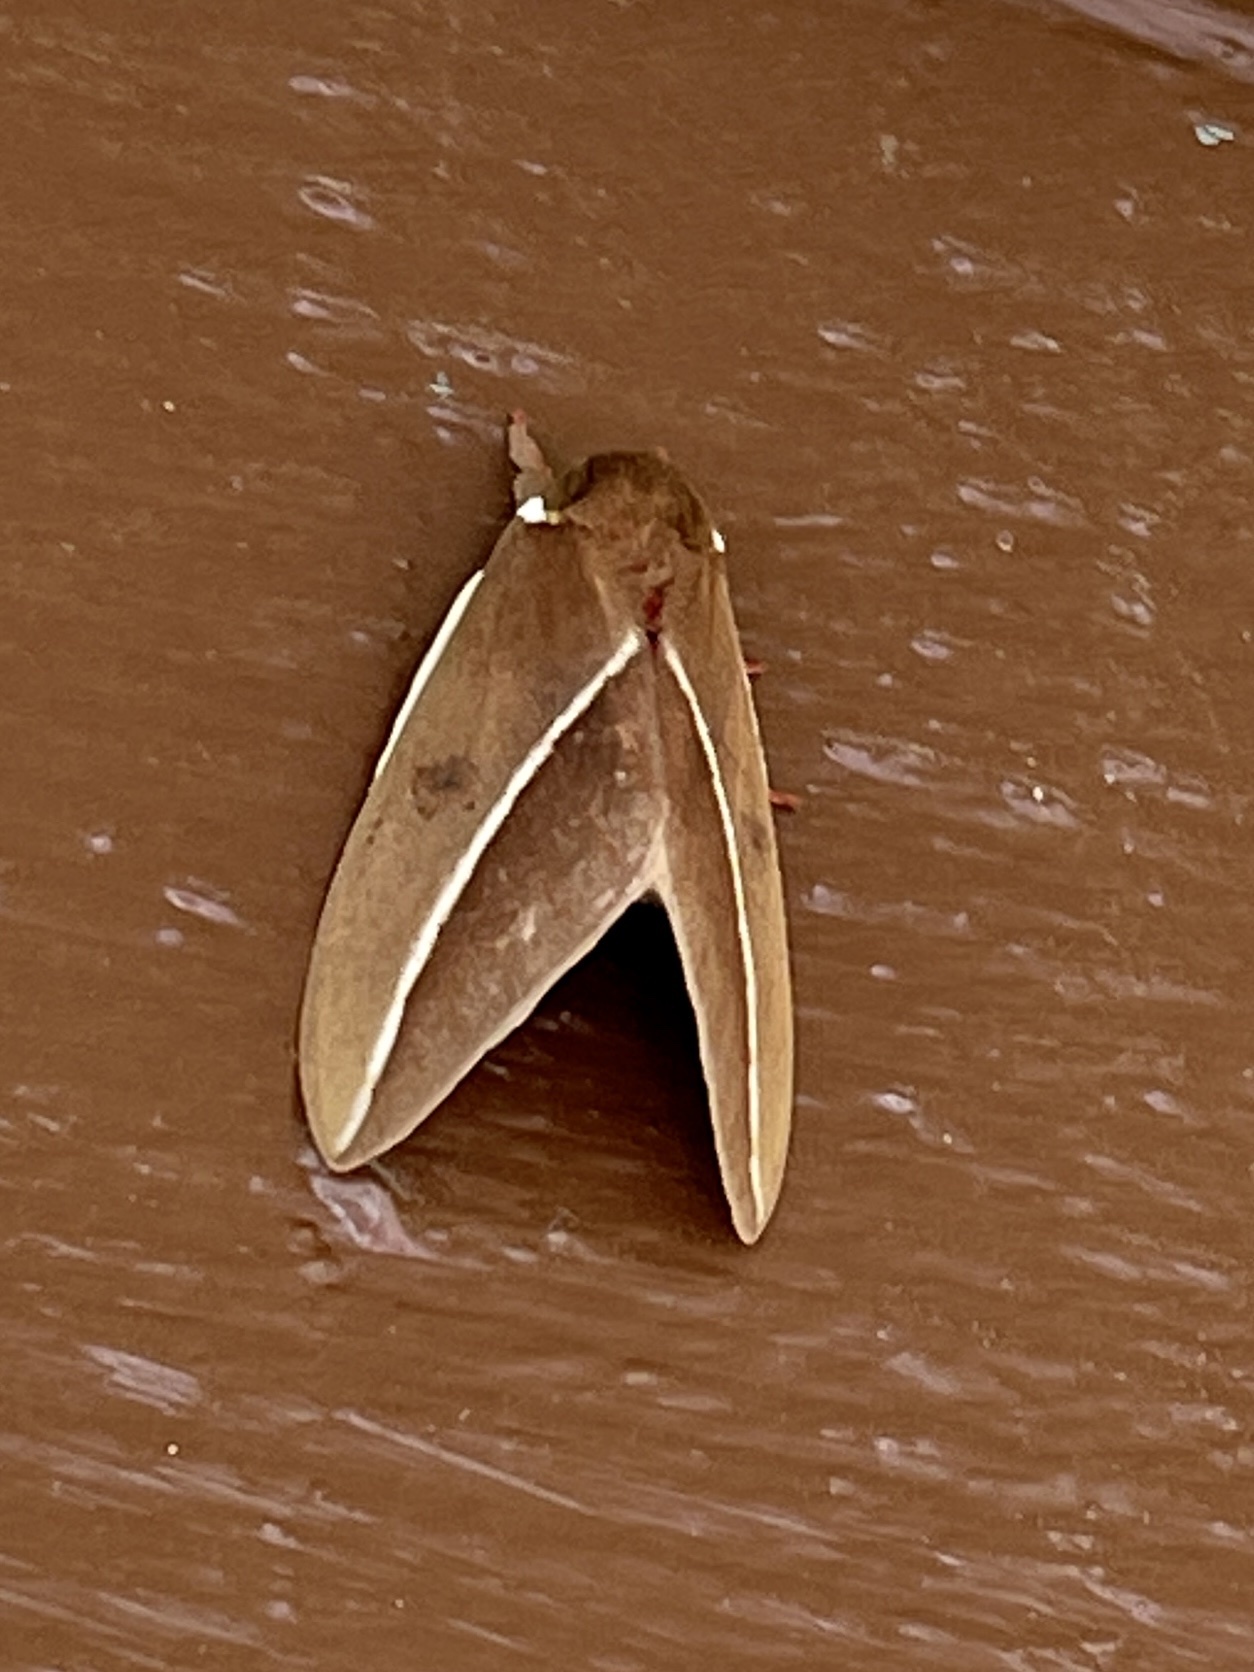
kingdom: Animalia
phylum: Arthropoda
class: Insecta
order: Lepidoptera
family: Saturniidae
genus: Automeris
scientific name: Automeris zephyria
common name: Zephyr eyed silkmoth
